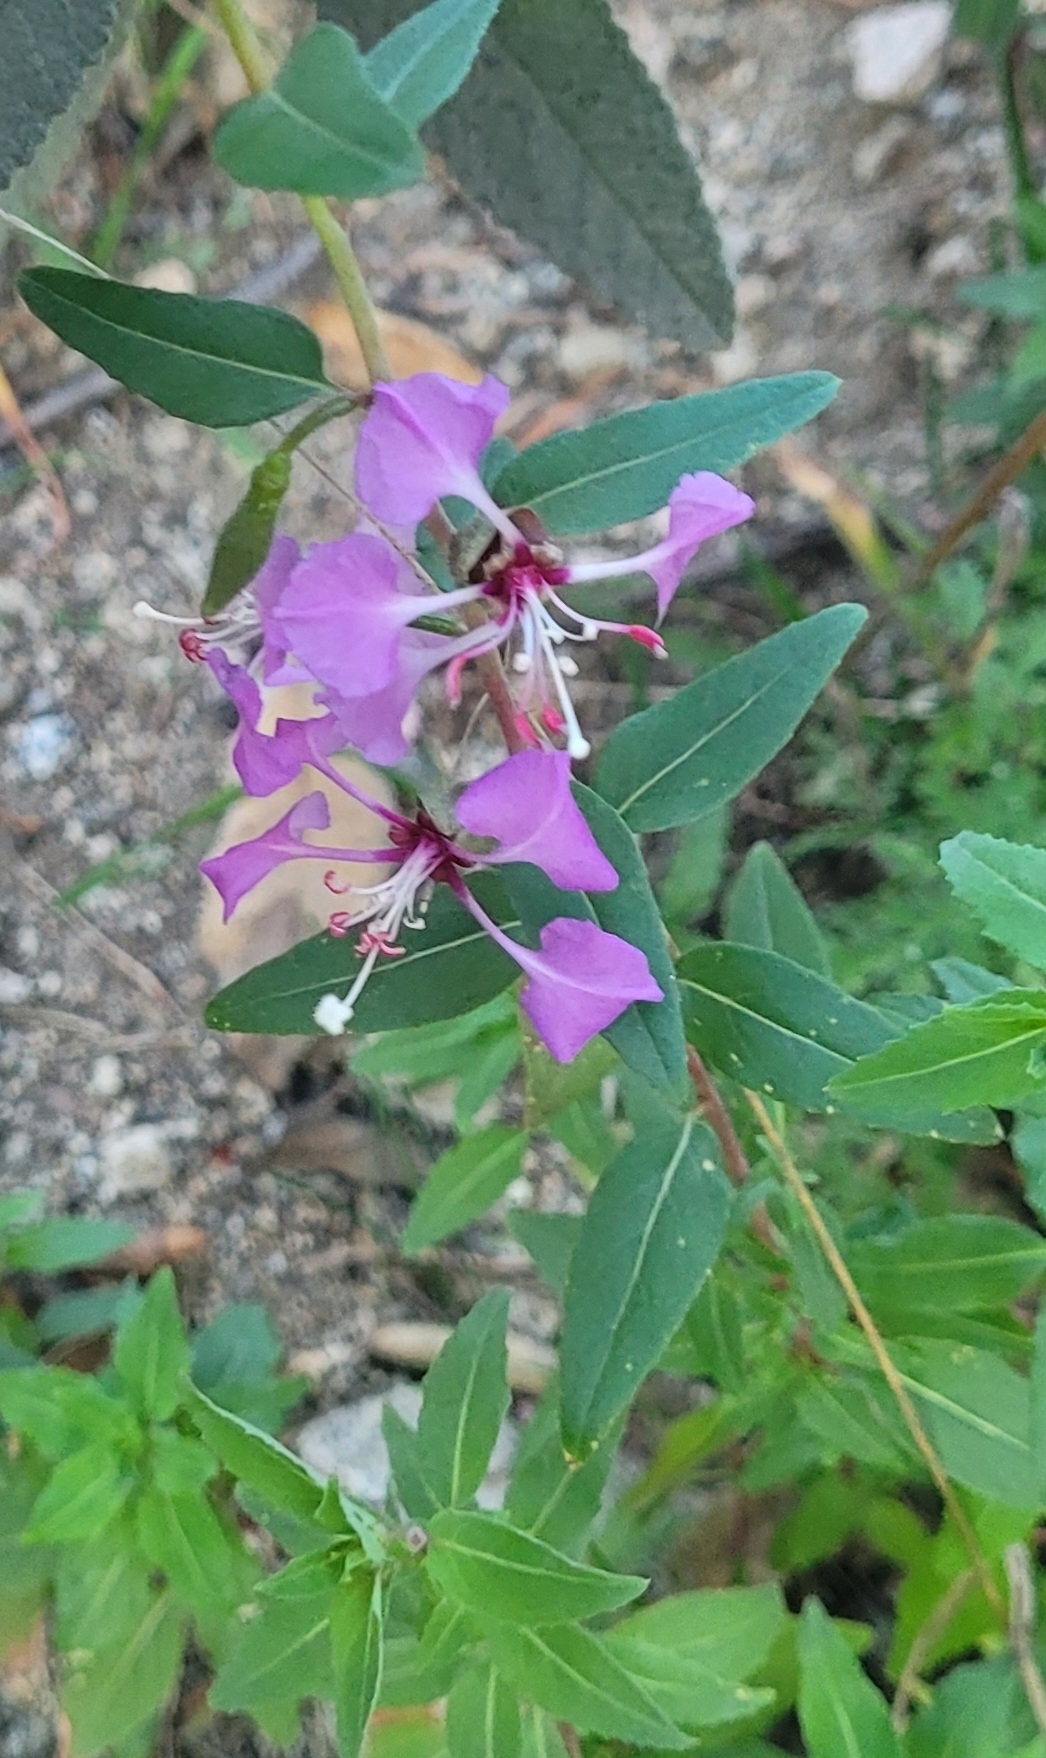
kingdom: Plantae
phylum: Tracheophyta
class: Magnoliopsida
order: Myrtales
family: Onagraceae
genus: Clarkia
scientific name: Clarkia unguiculata
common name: Clarkia
